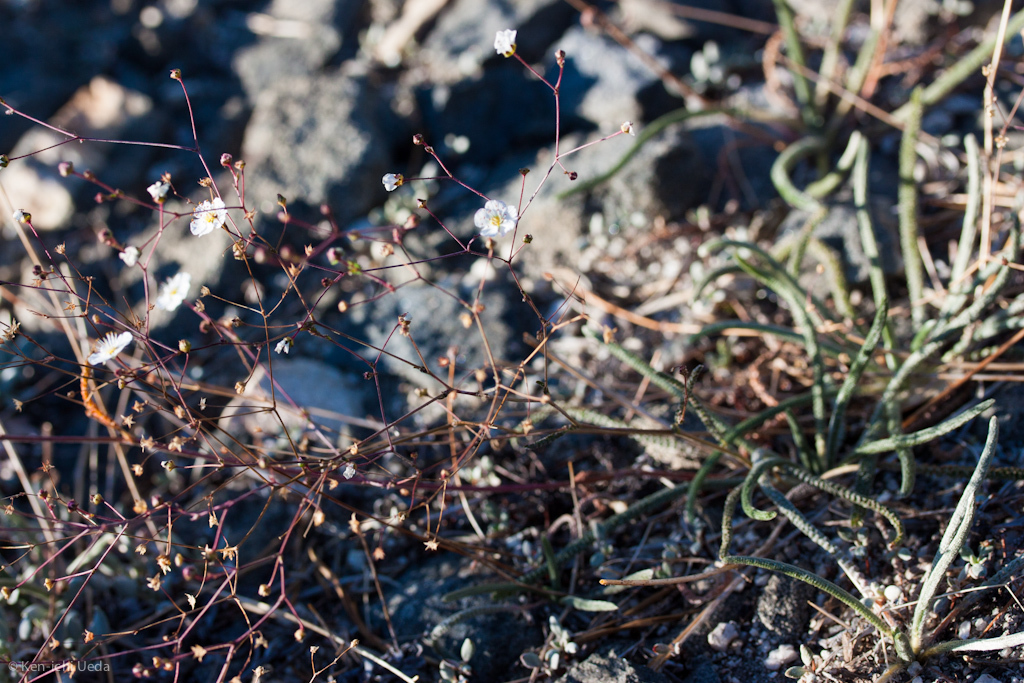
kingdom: Plantae
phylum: Tracheophyta
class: Magnoliopsida
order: Rosales
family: Rosaceae
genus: Potentilla
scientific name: Potentilla santolinoides
